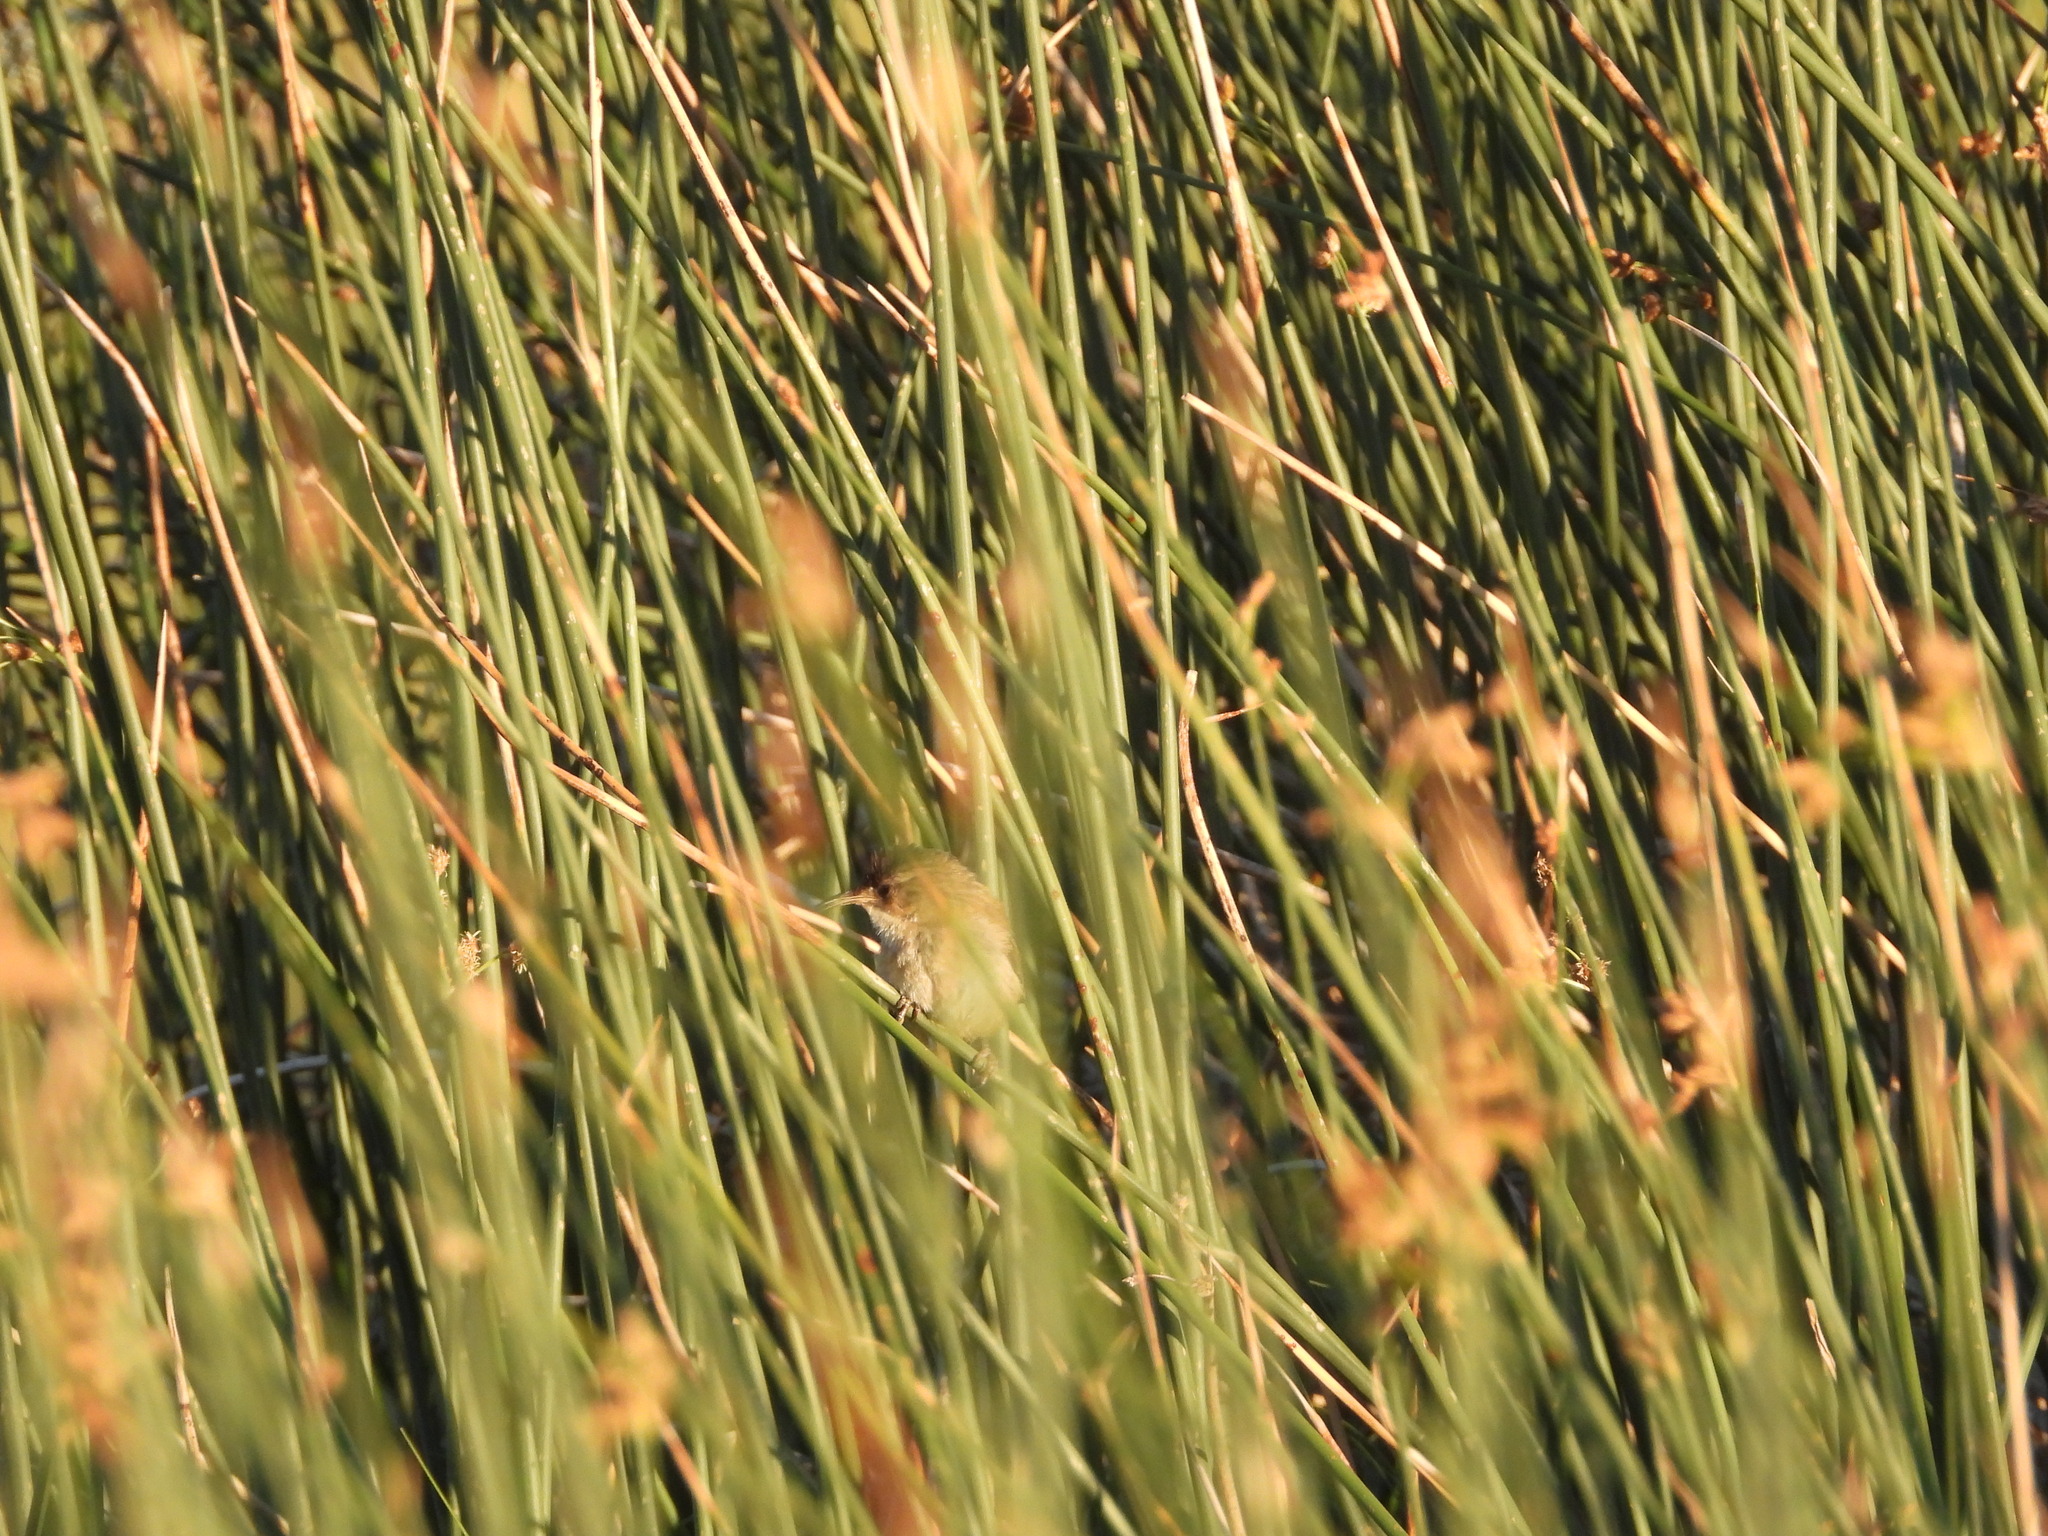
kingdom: Animalia
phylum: Chordata
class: Aves
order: Passeriformes
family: Troglodytidae
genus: Cistothorus
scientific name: Cistothorus palustris
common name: Marsh wren
